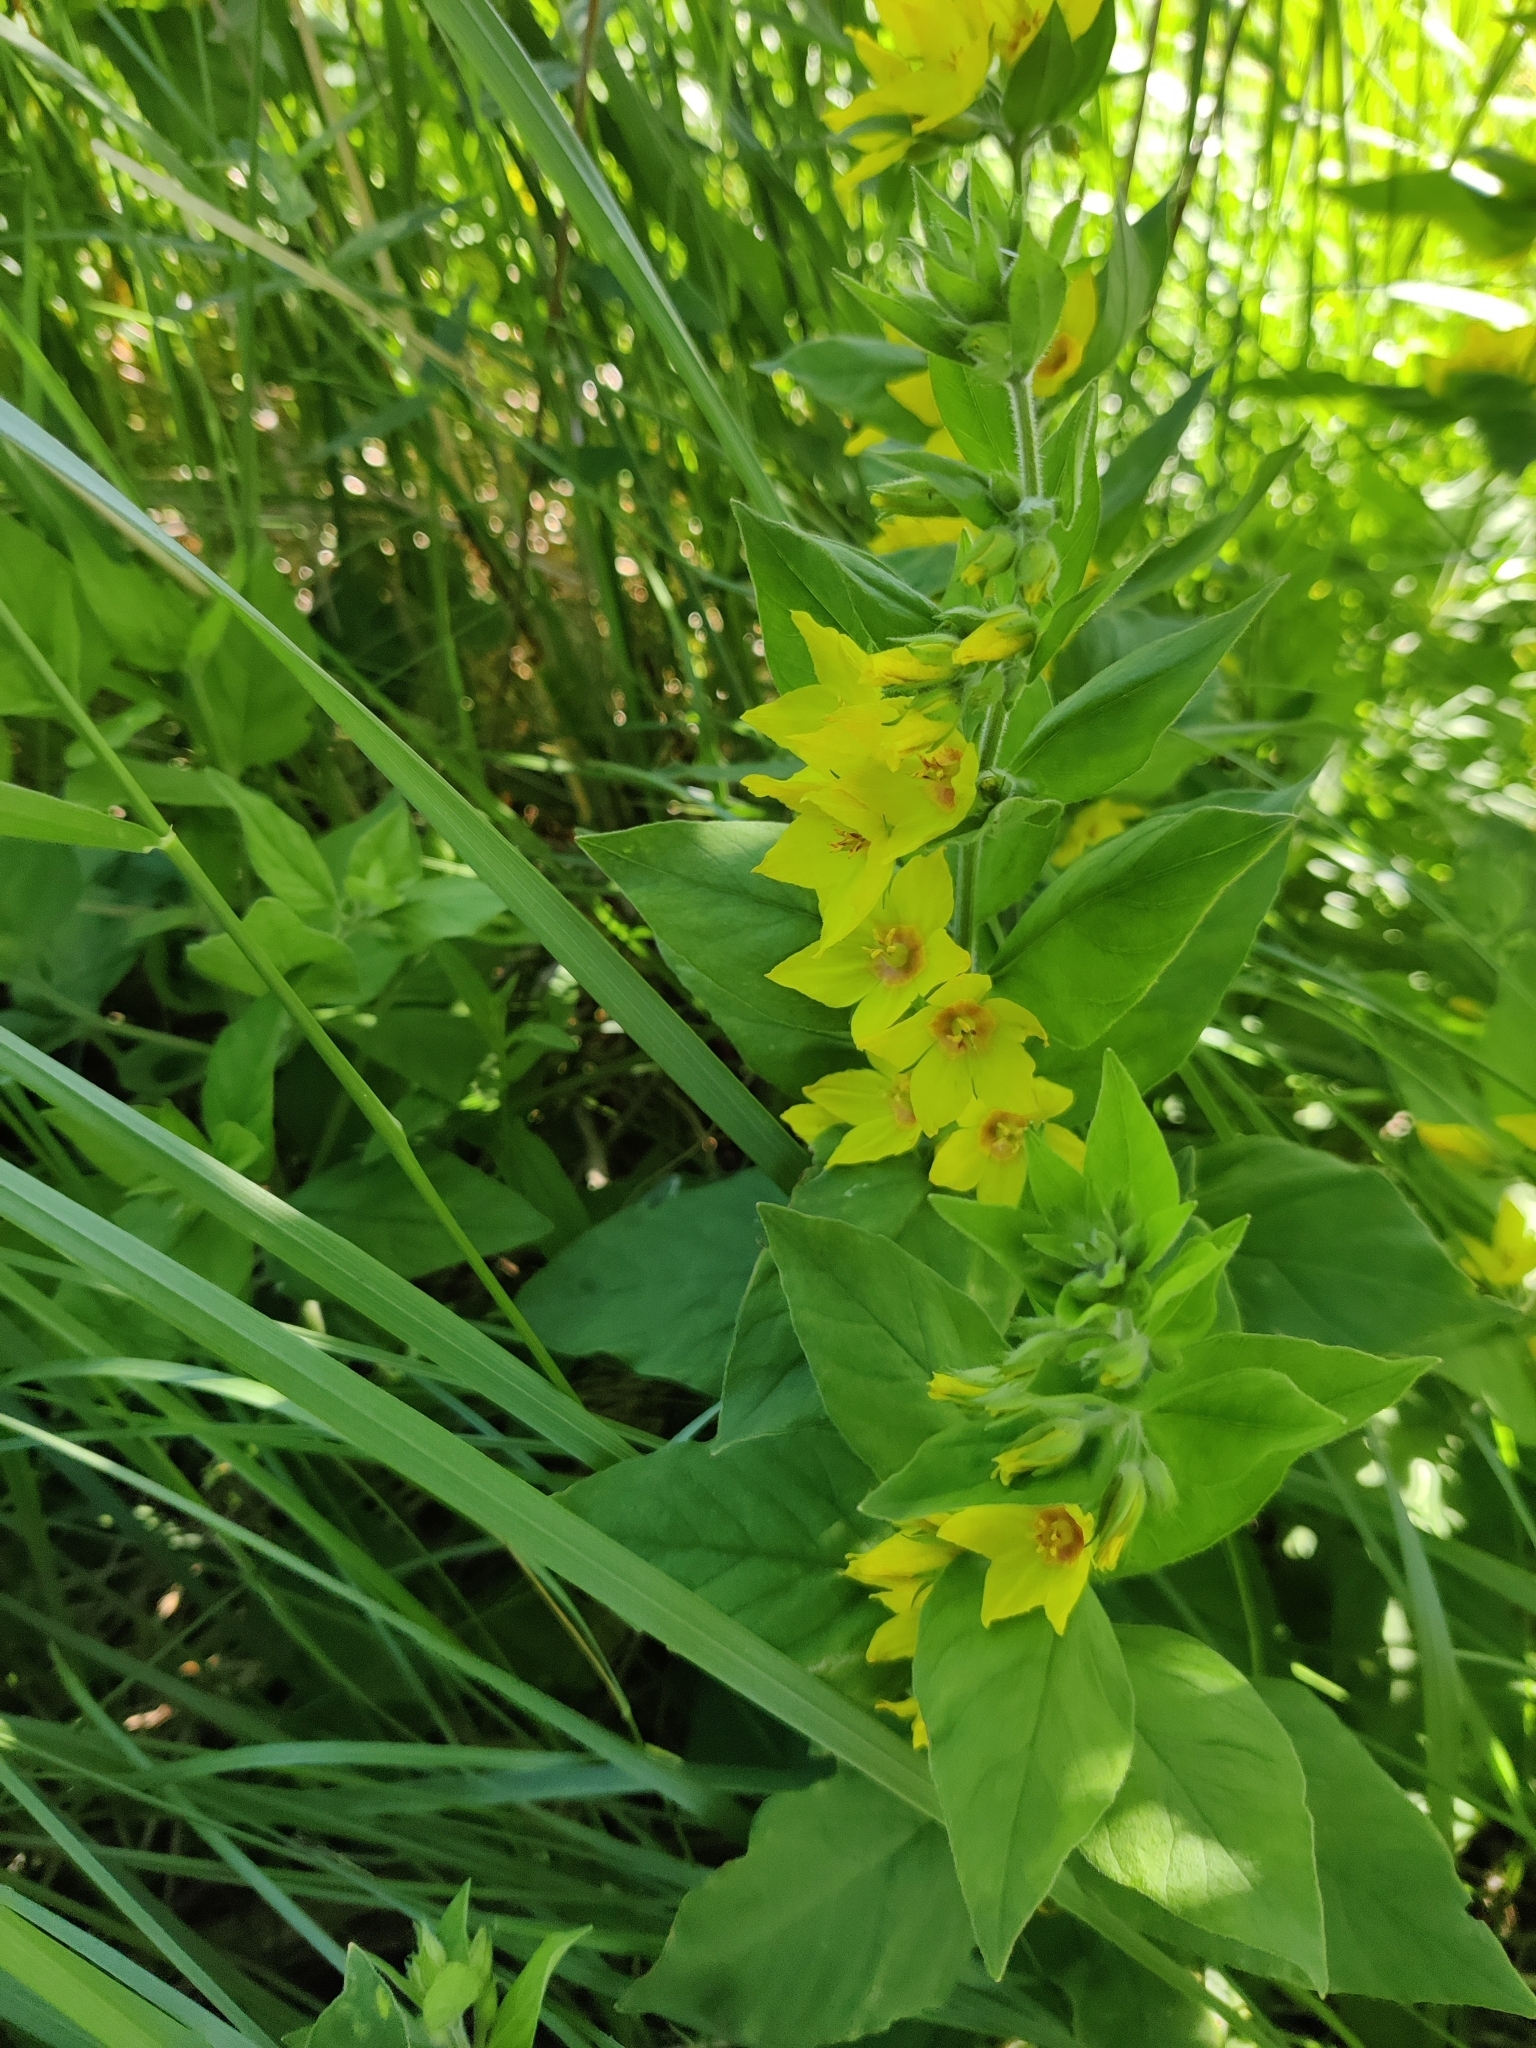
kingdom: Plantae
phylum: Tracheophyta
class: Magnoliopsida
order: Ericales
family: Primulaceae
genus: Lysimachia
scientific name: Lysimachia vulgaris
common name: Yellow loosestrife
